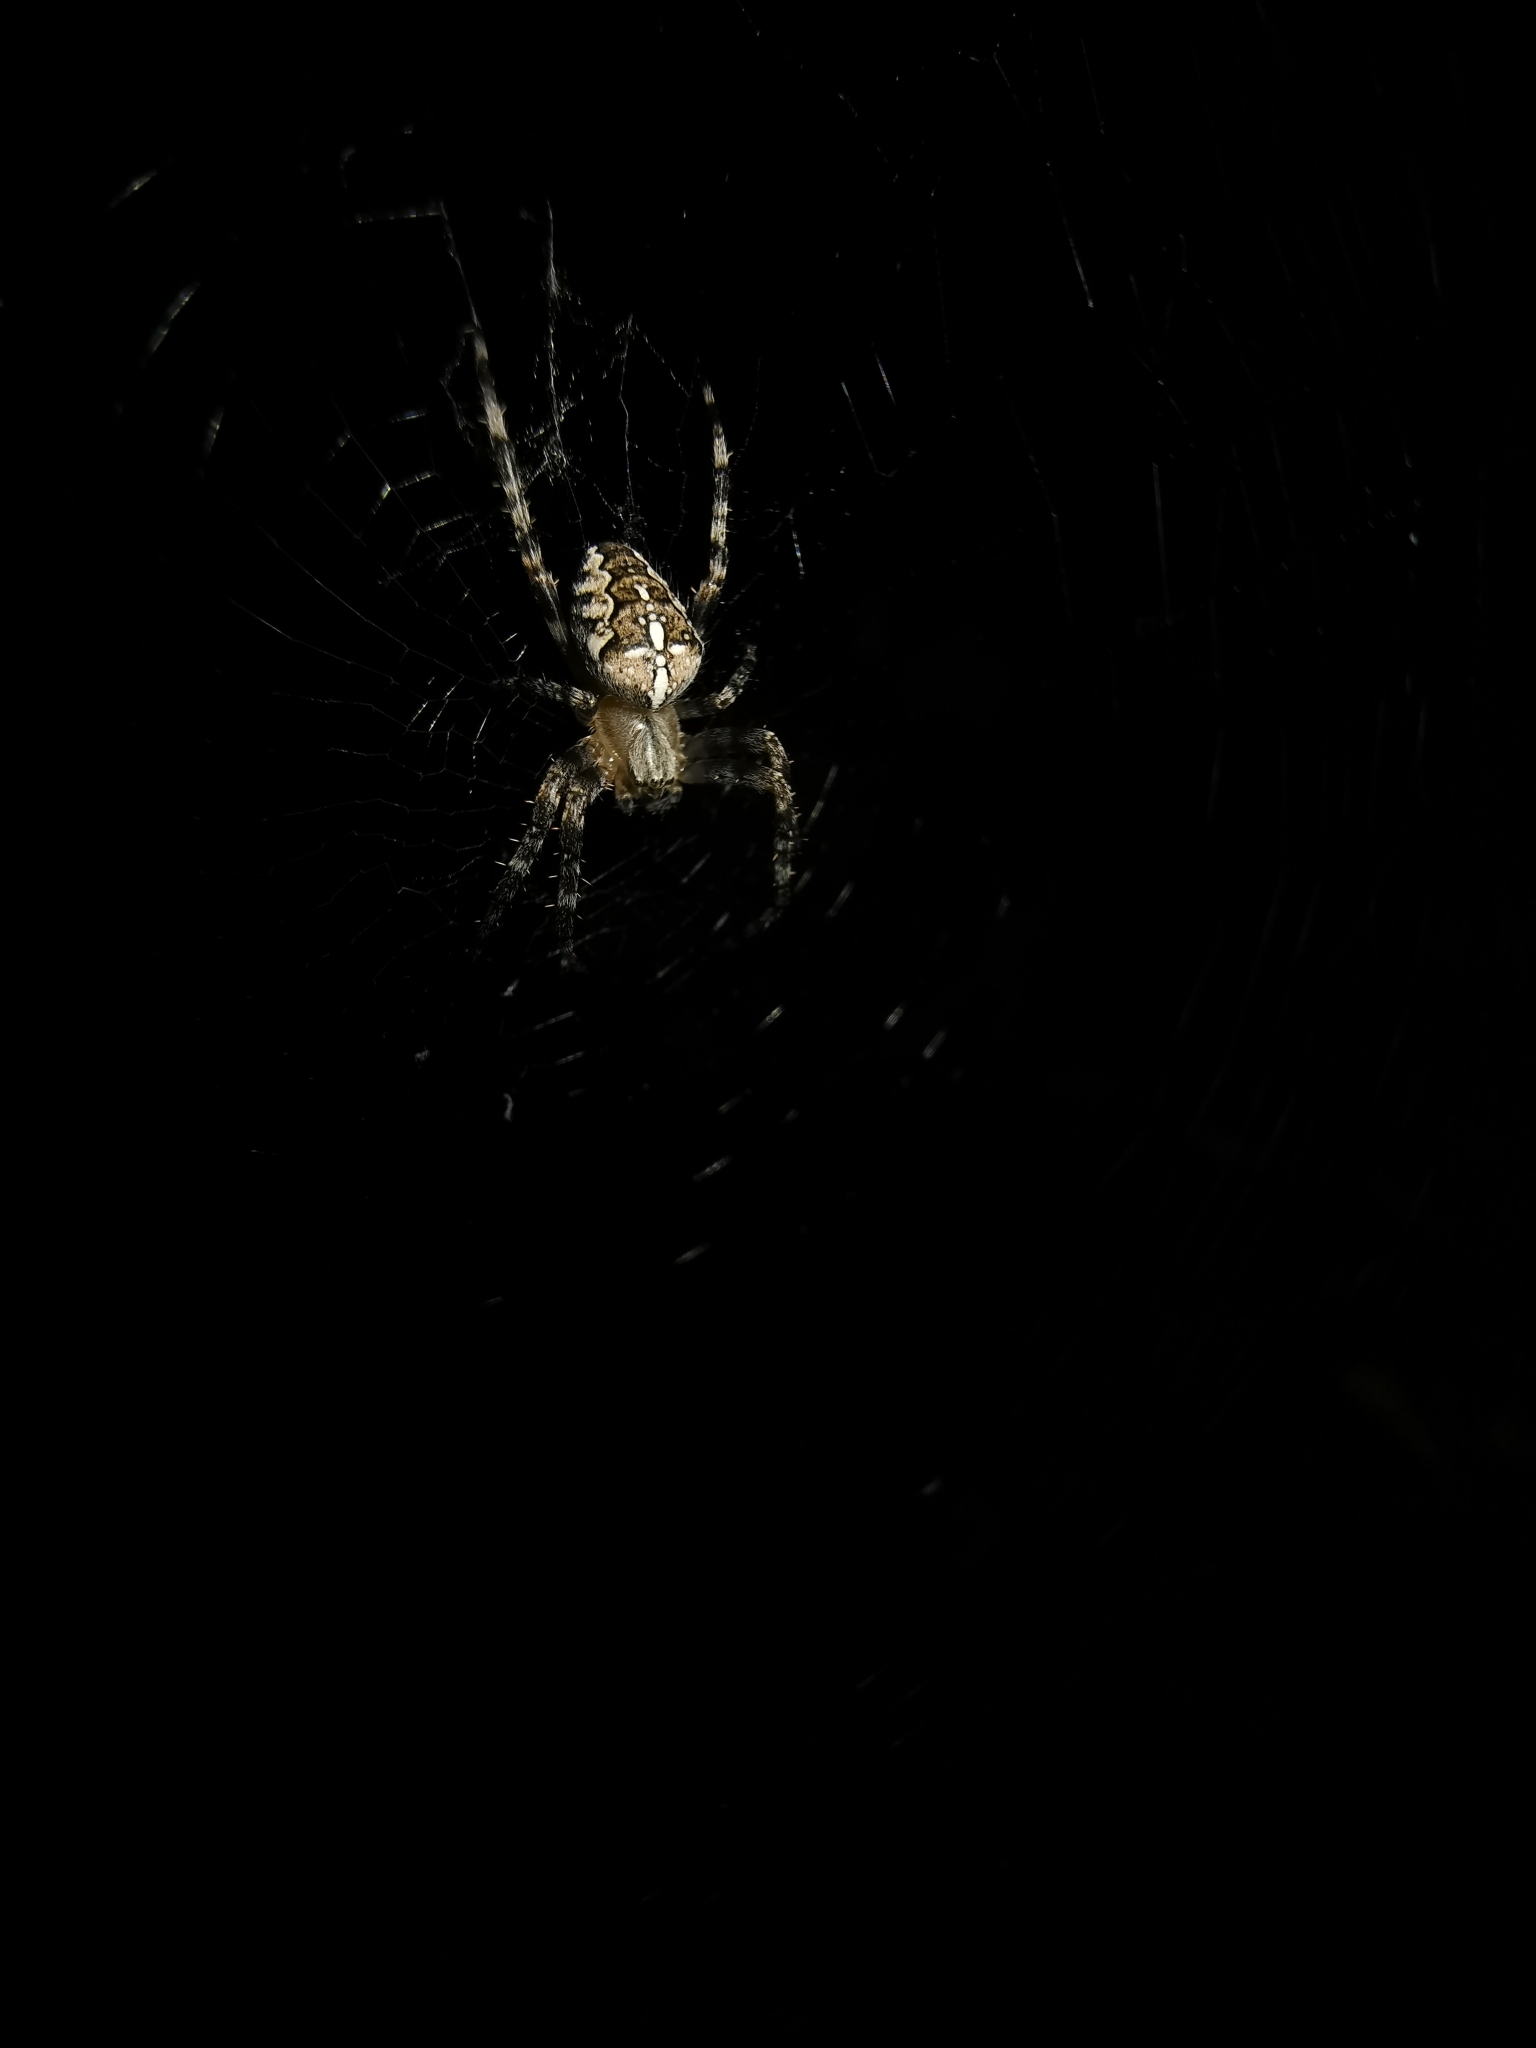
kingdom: Animalia
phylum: Arthropoda
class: Arachnida
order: Araneae
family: Araneidae
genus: Araneus
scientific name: Araneus diadematus
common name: Cross orbweaver
